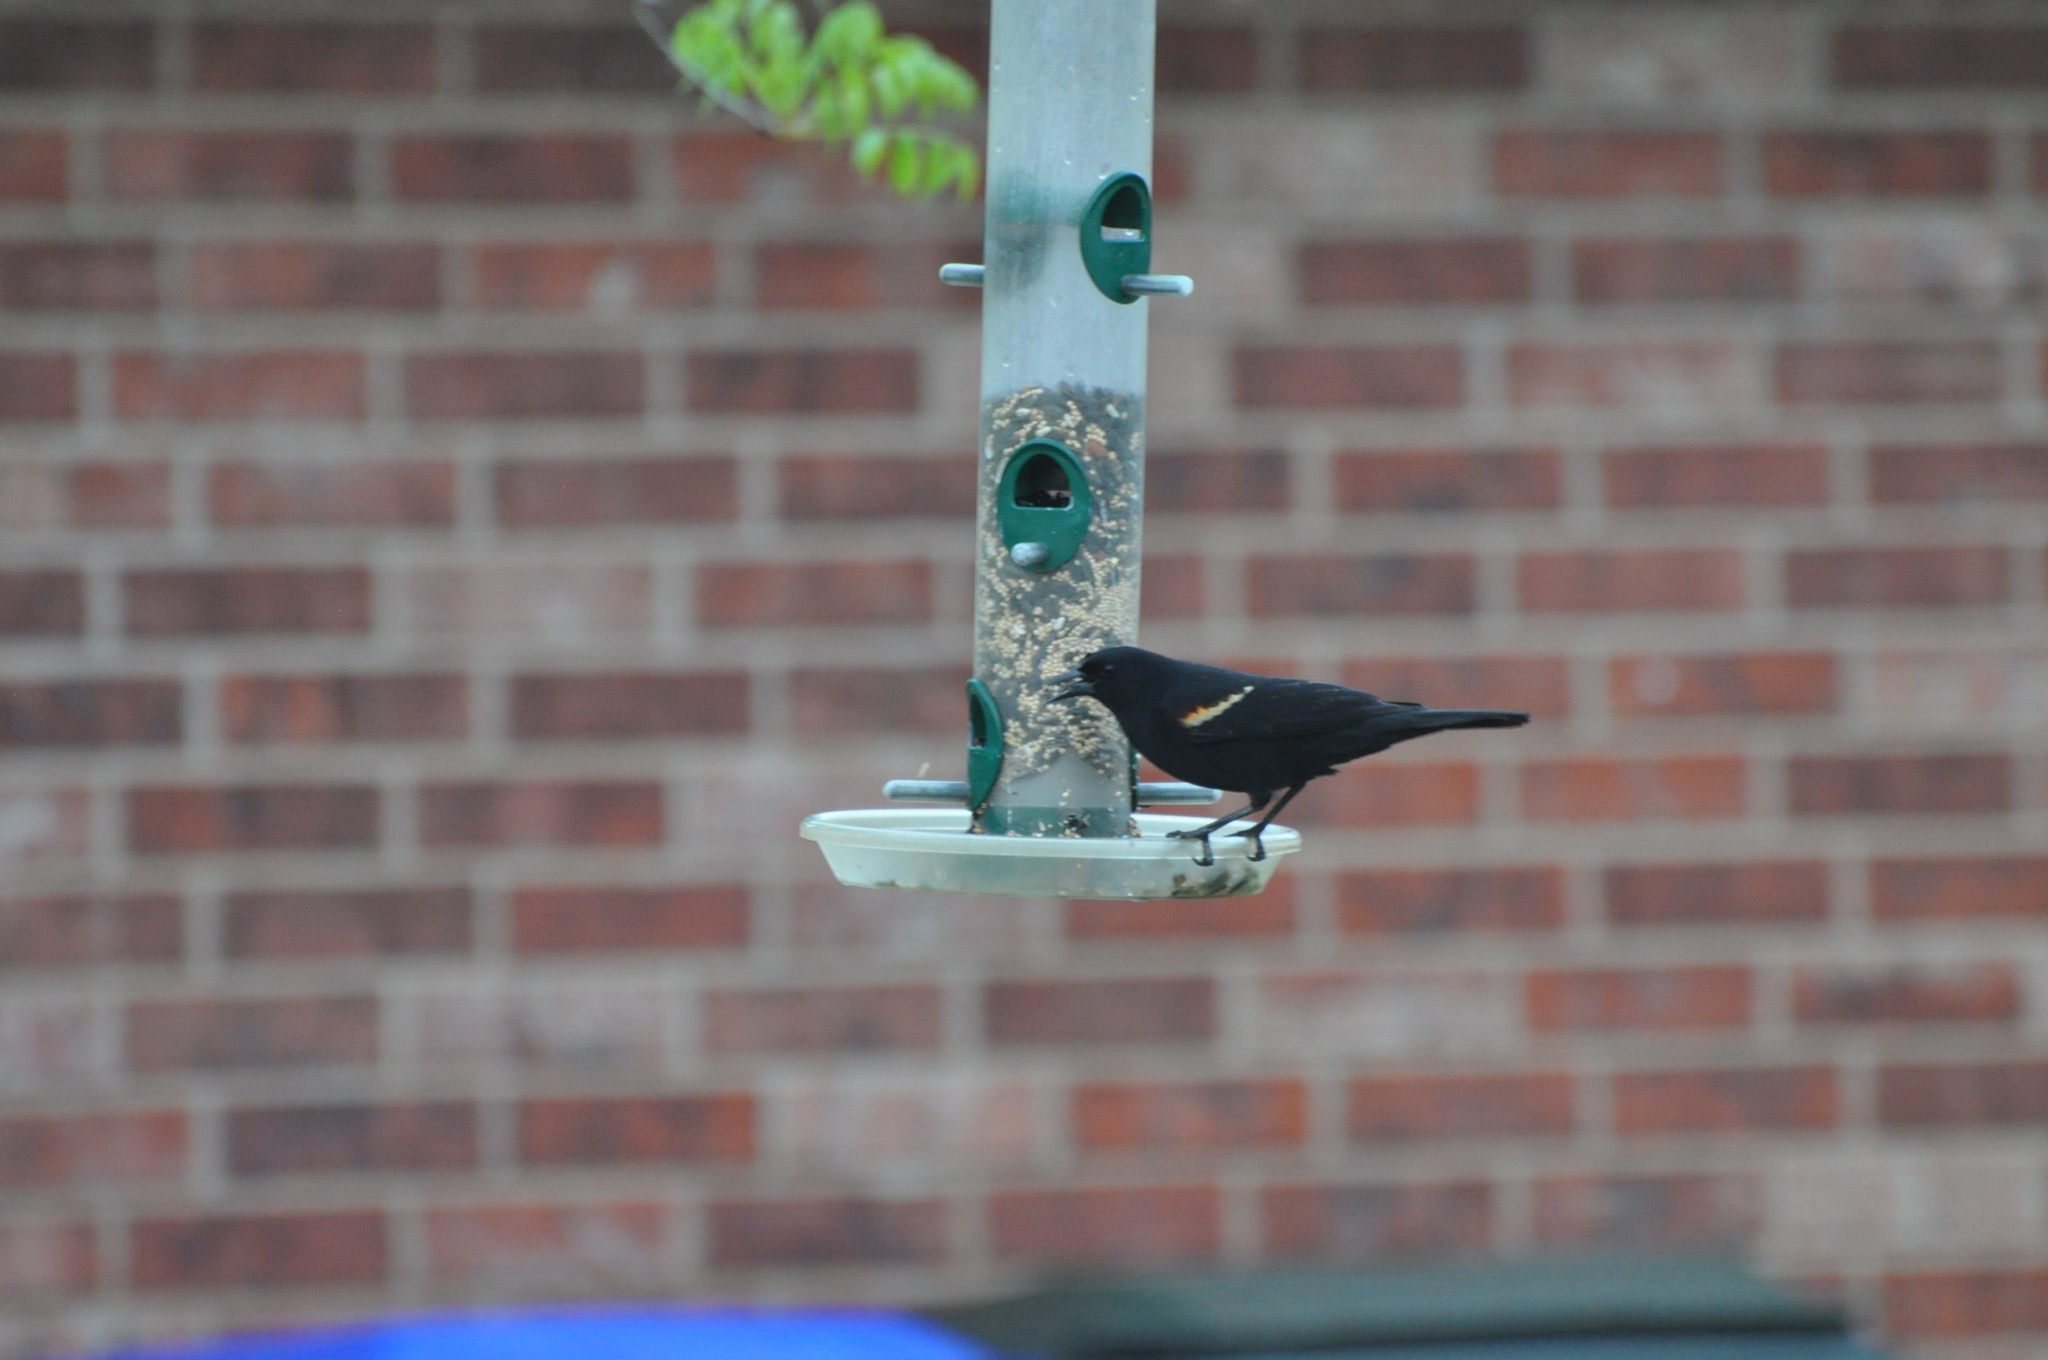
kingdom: Animalia
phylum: Chordata
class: Aves
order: Passeriformes
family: Icteridae
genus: Agelaius
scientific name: Agelaius phoeniceus
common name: Red-winged blackbird
